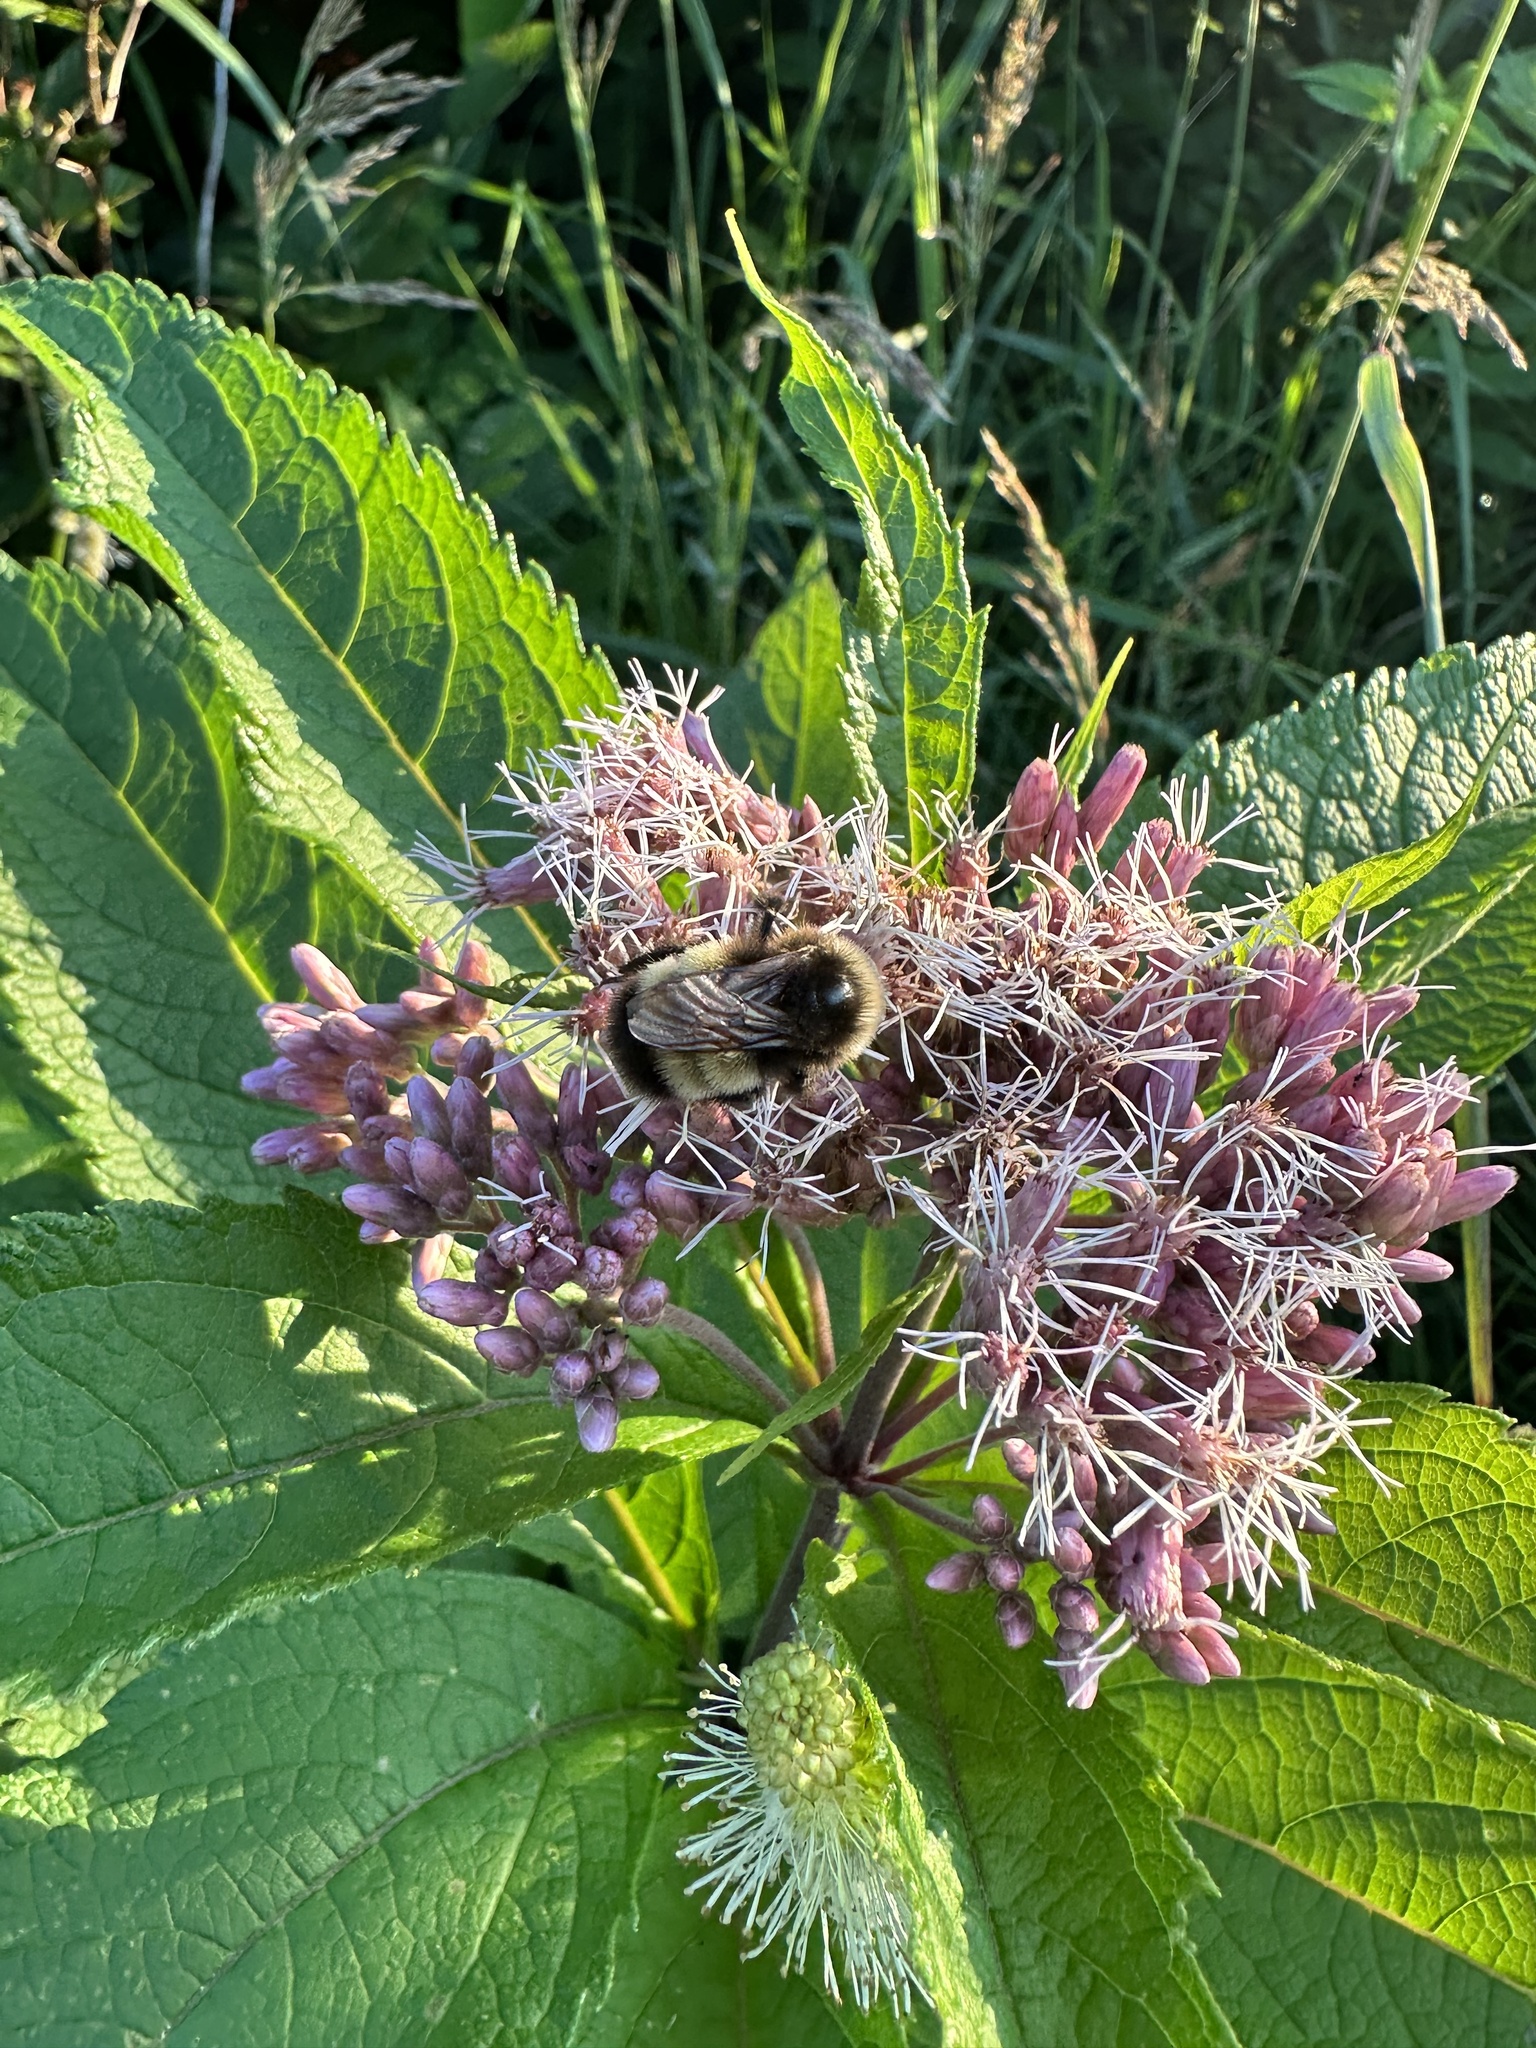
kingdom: Animalia
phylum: Arthropoda
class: Insecta
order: Hymenoptera
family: Apidae
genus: Bombus
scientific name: Bombus terricola
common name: Yellow-banded bumble bee
